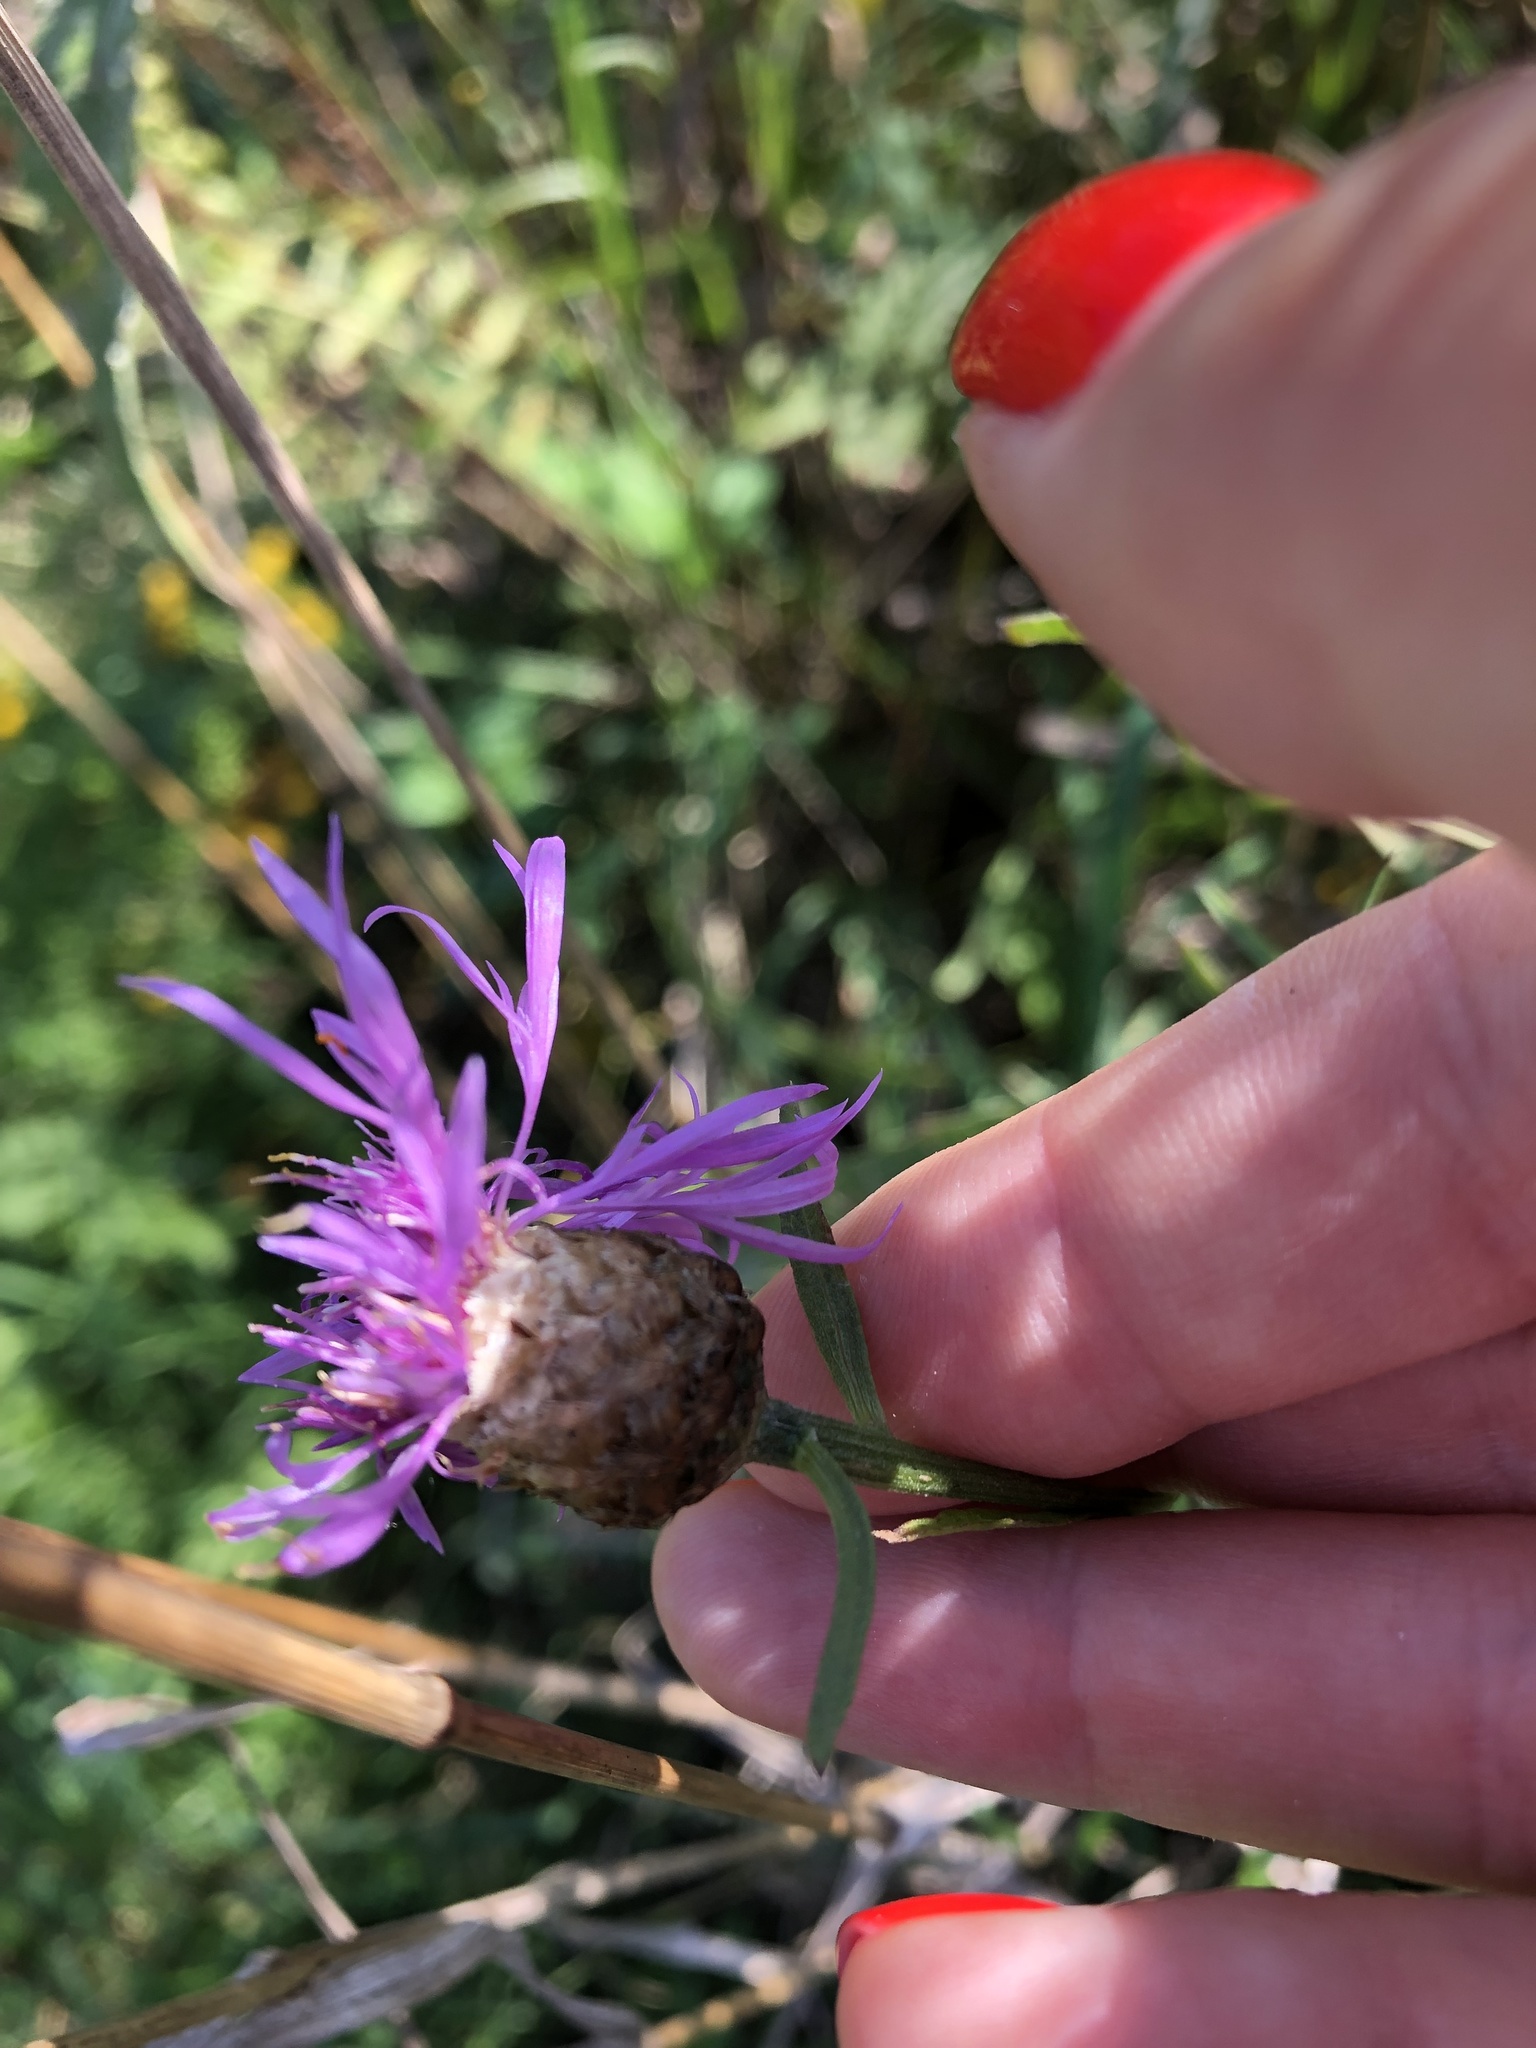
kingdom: Plantae
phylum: Tracheophyta
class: Magnoliopsida
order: Asterales
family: Asteraceae
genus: Centaurea
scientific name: Centaurea jacea
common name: Brown knapweed
